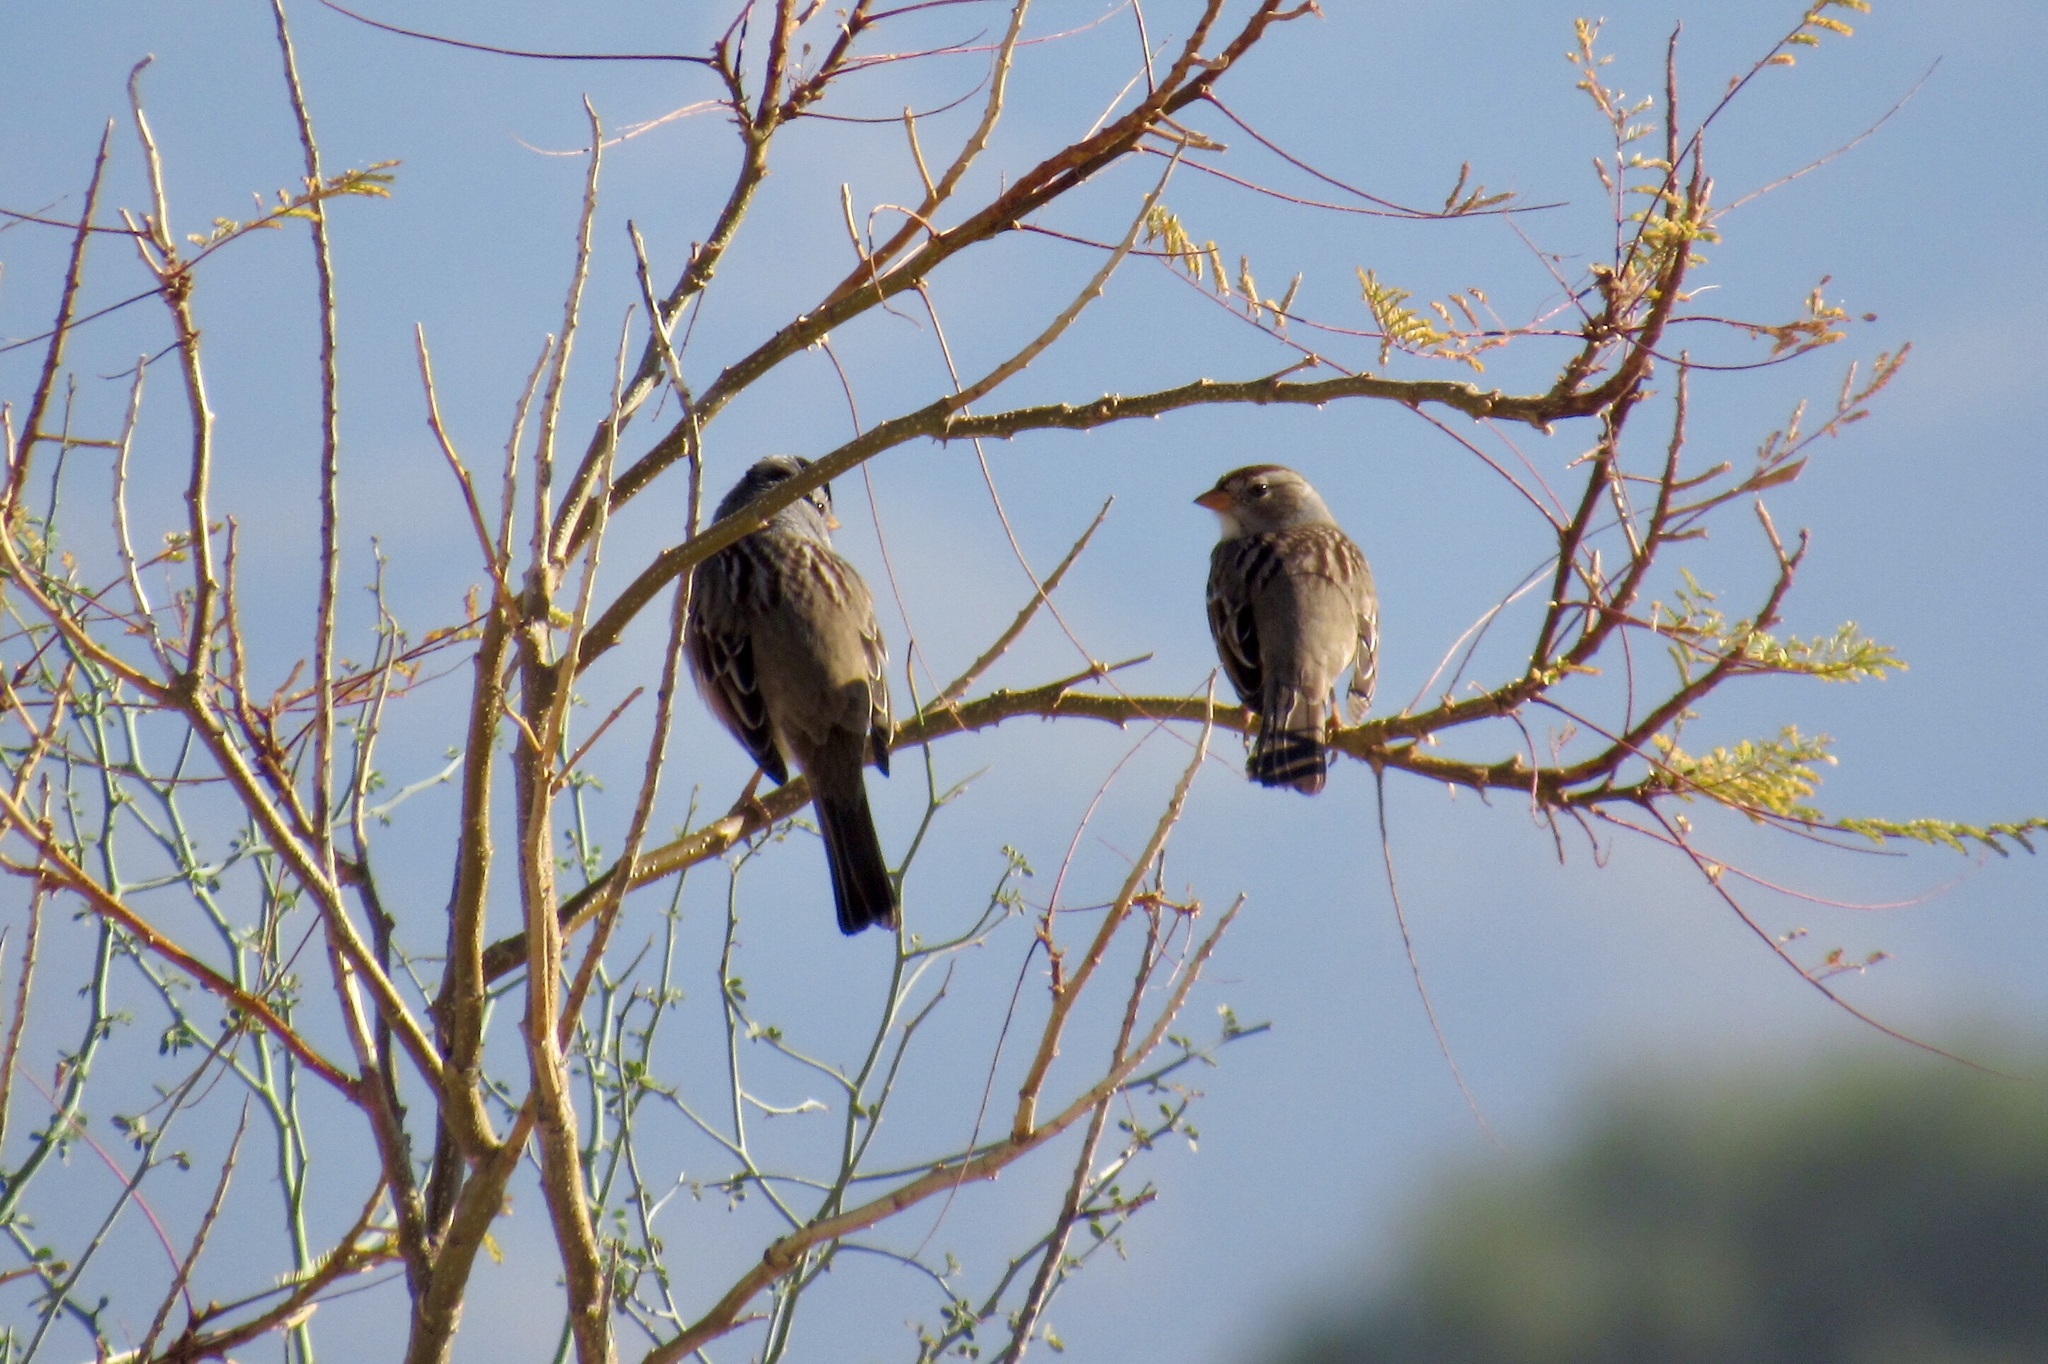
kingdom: Animalia
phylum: Chordata
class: Aves
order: Passeriformes
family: Passerellidae
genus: Zonotrichia
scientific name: Zonotrichia leucophrys
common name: White-crowned sparrow
